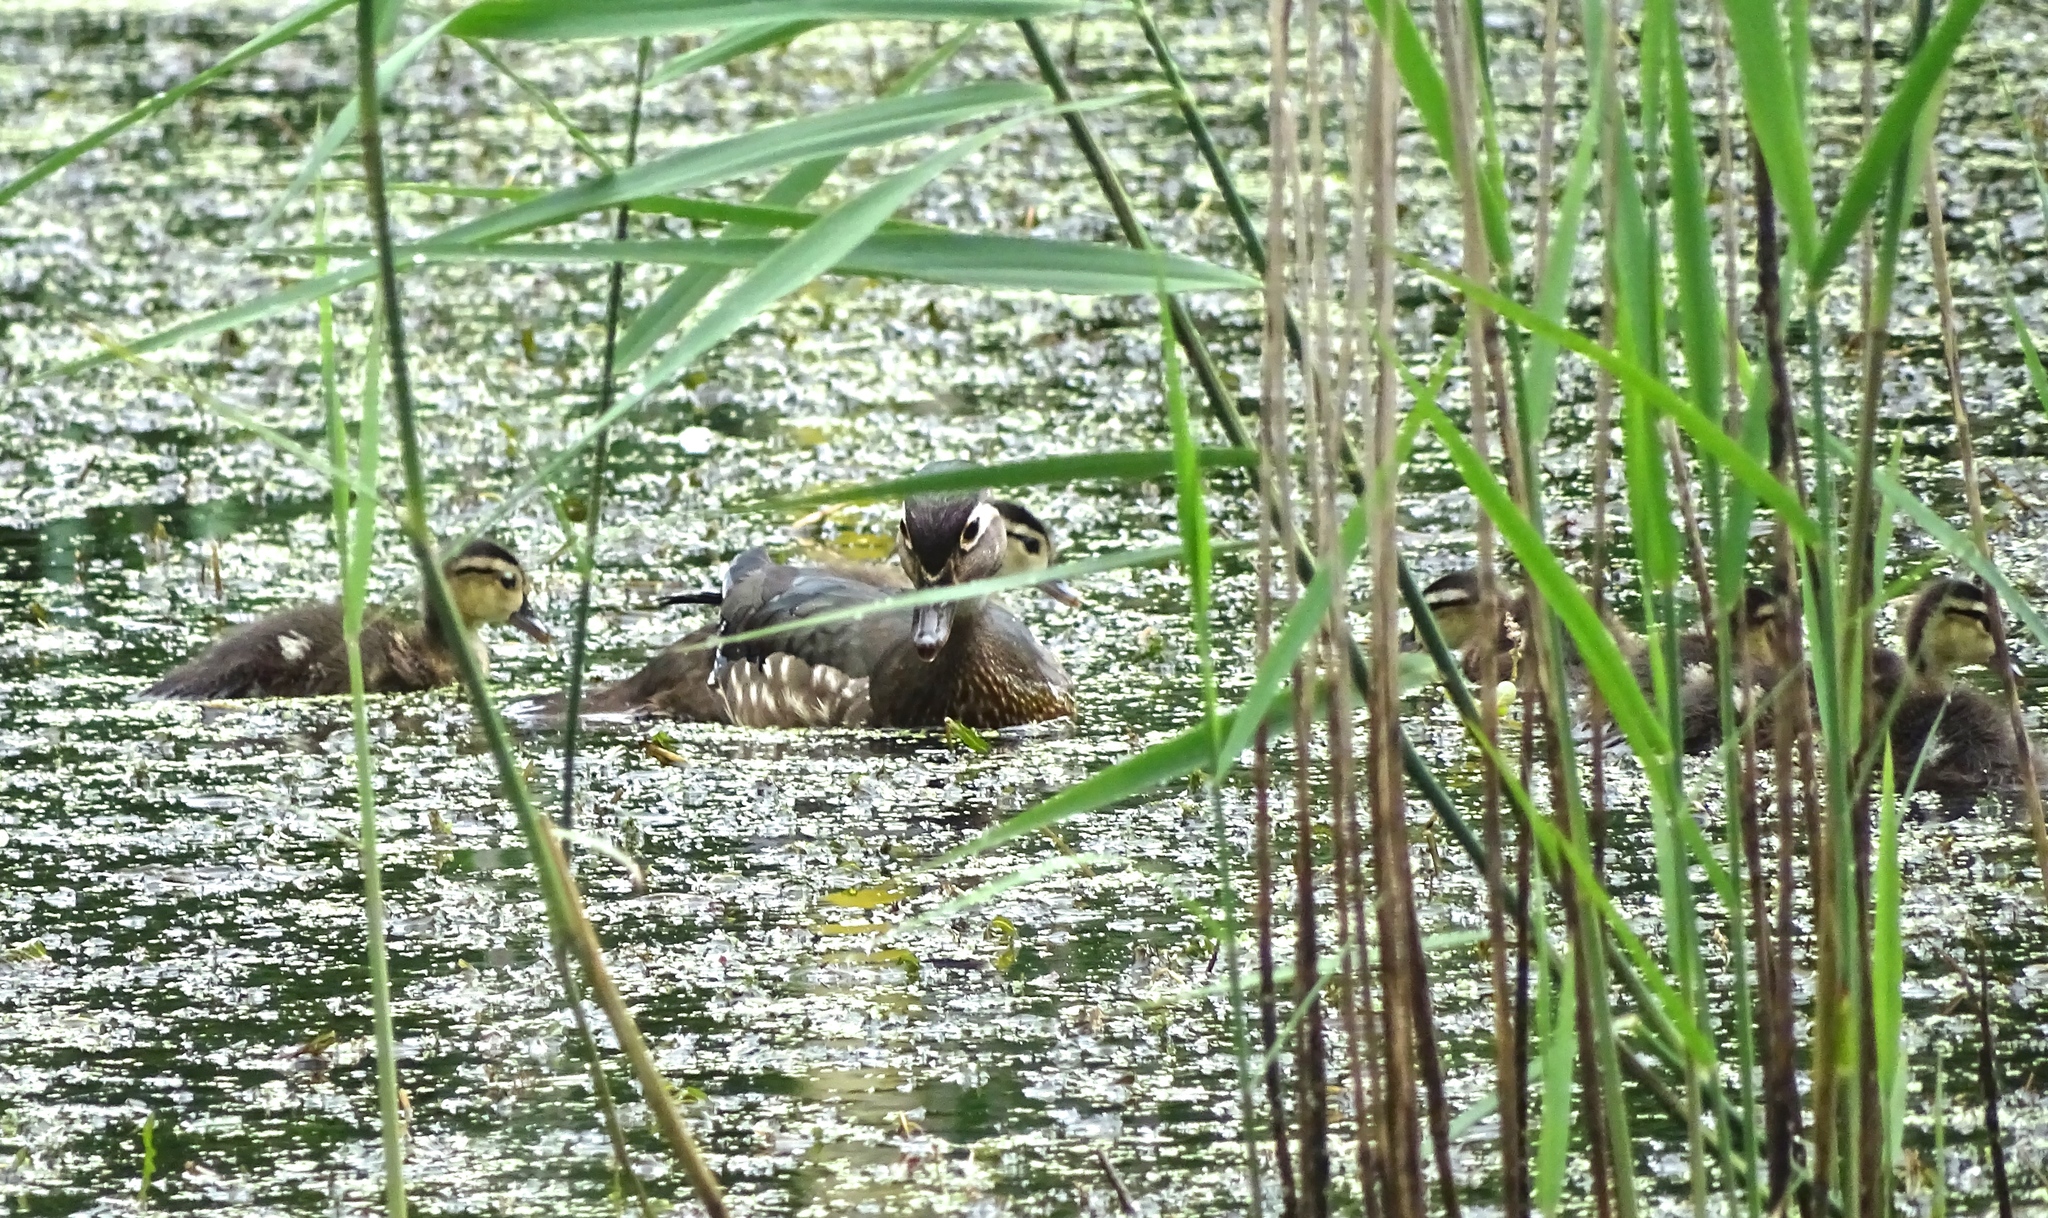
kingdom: Animalia
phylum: Chordata
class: Aves
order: Anseriformes
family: Anatidae
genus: Aix
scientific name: Aix sponsa
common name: Wood duck
